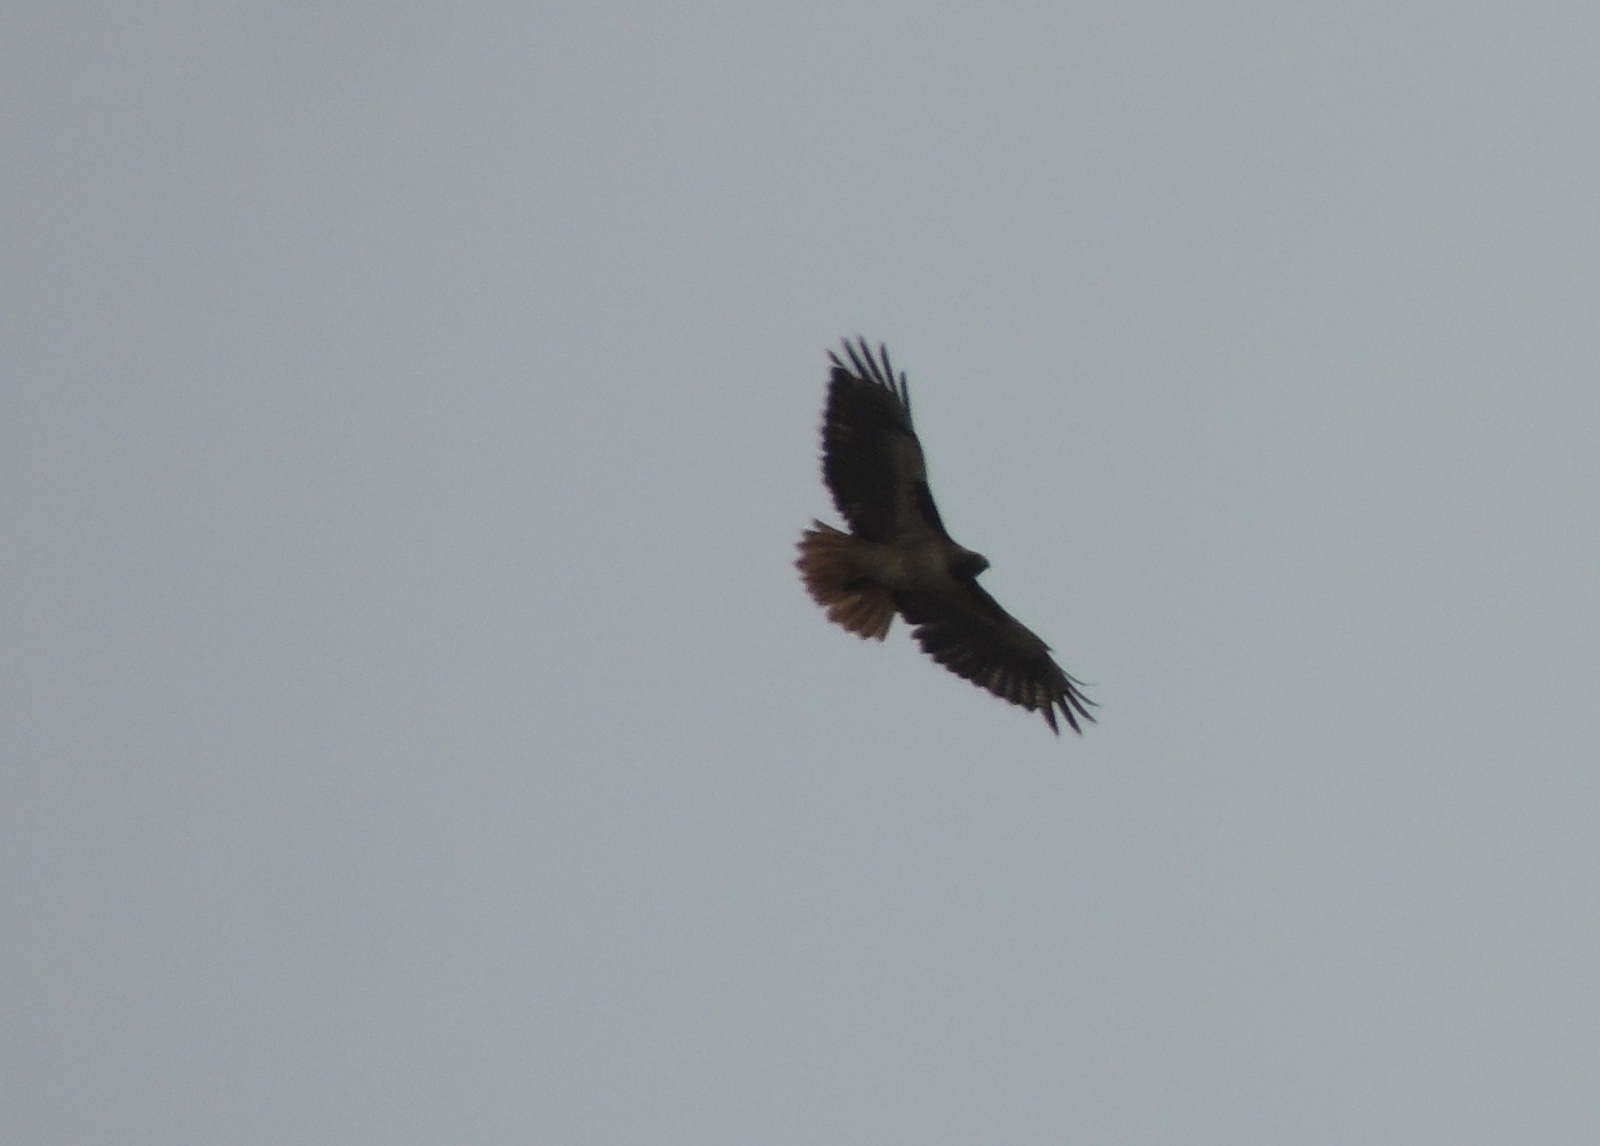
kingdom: Animalia
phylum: Chordata
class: Aves
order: Accipitriformes
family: Accipitridae
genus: Buteo
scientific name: Buteo jamaicensis
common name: Red-tailed hawk
